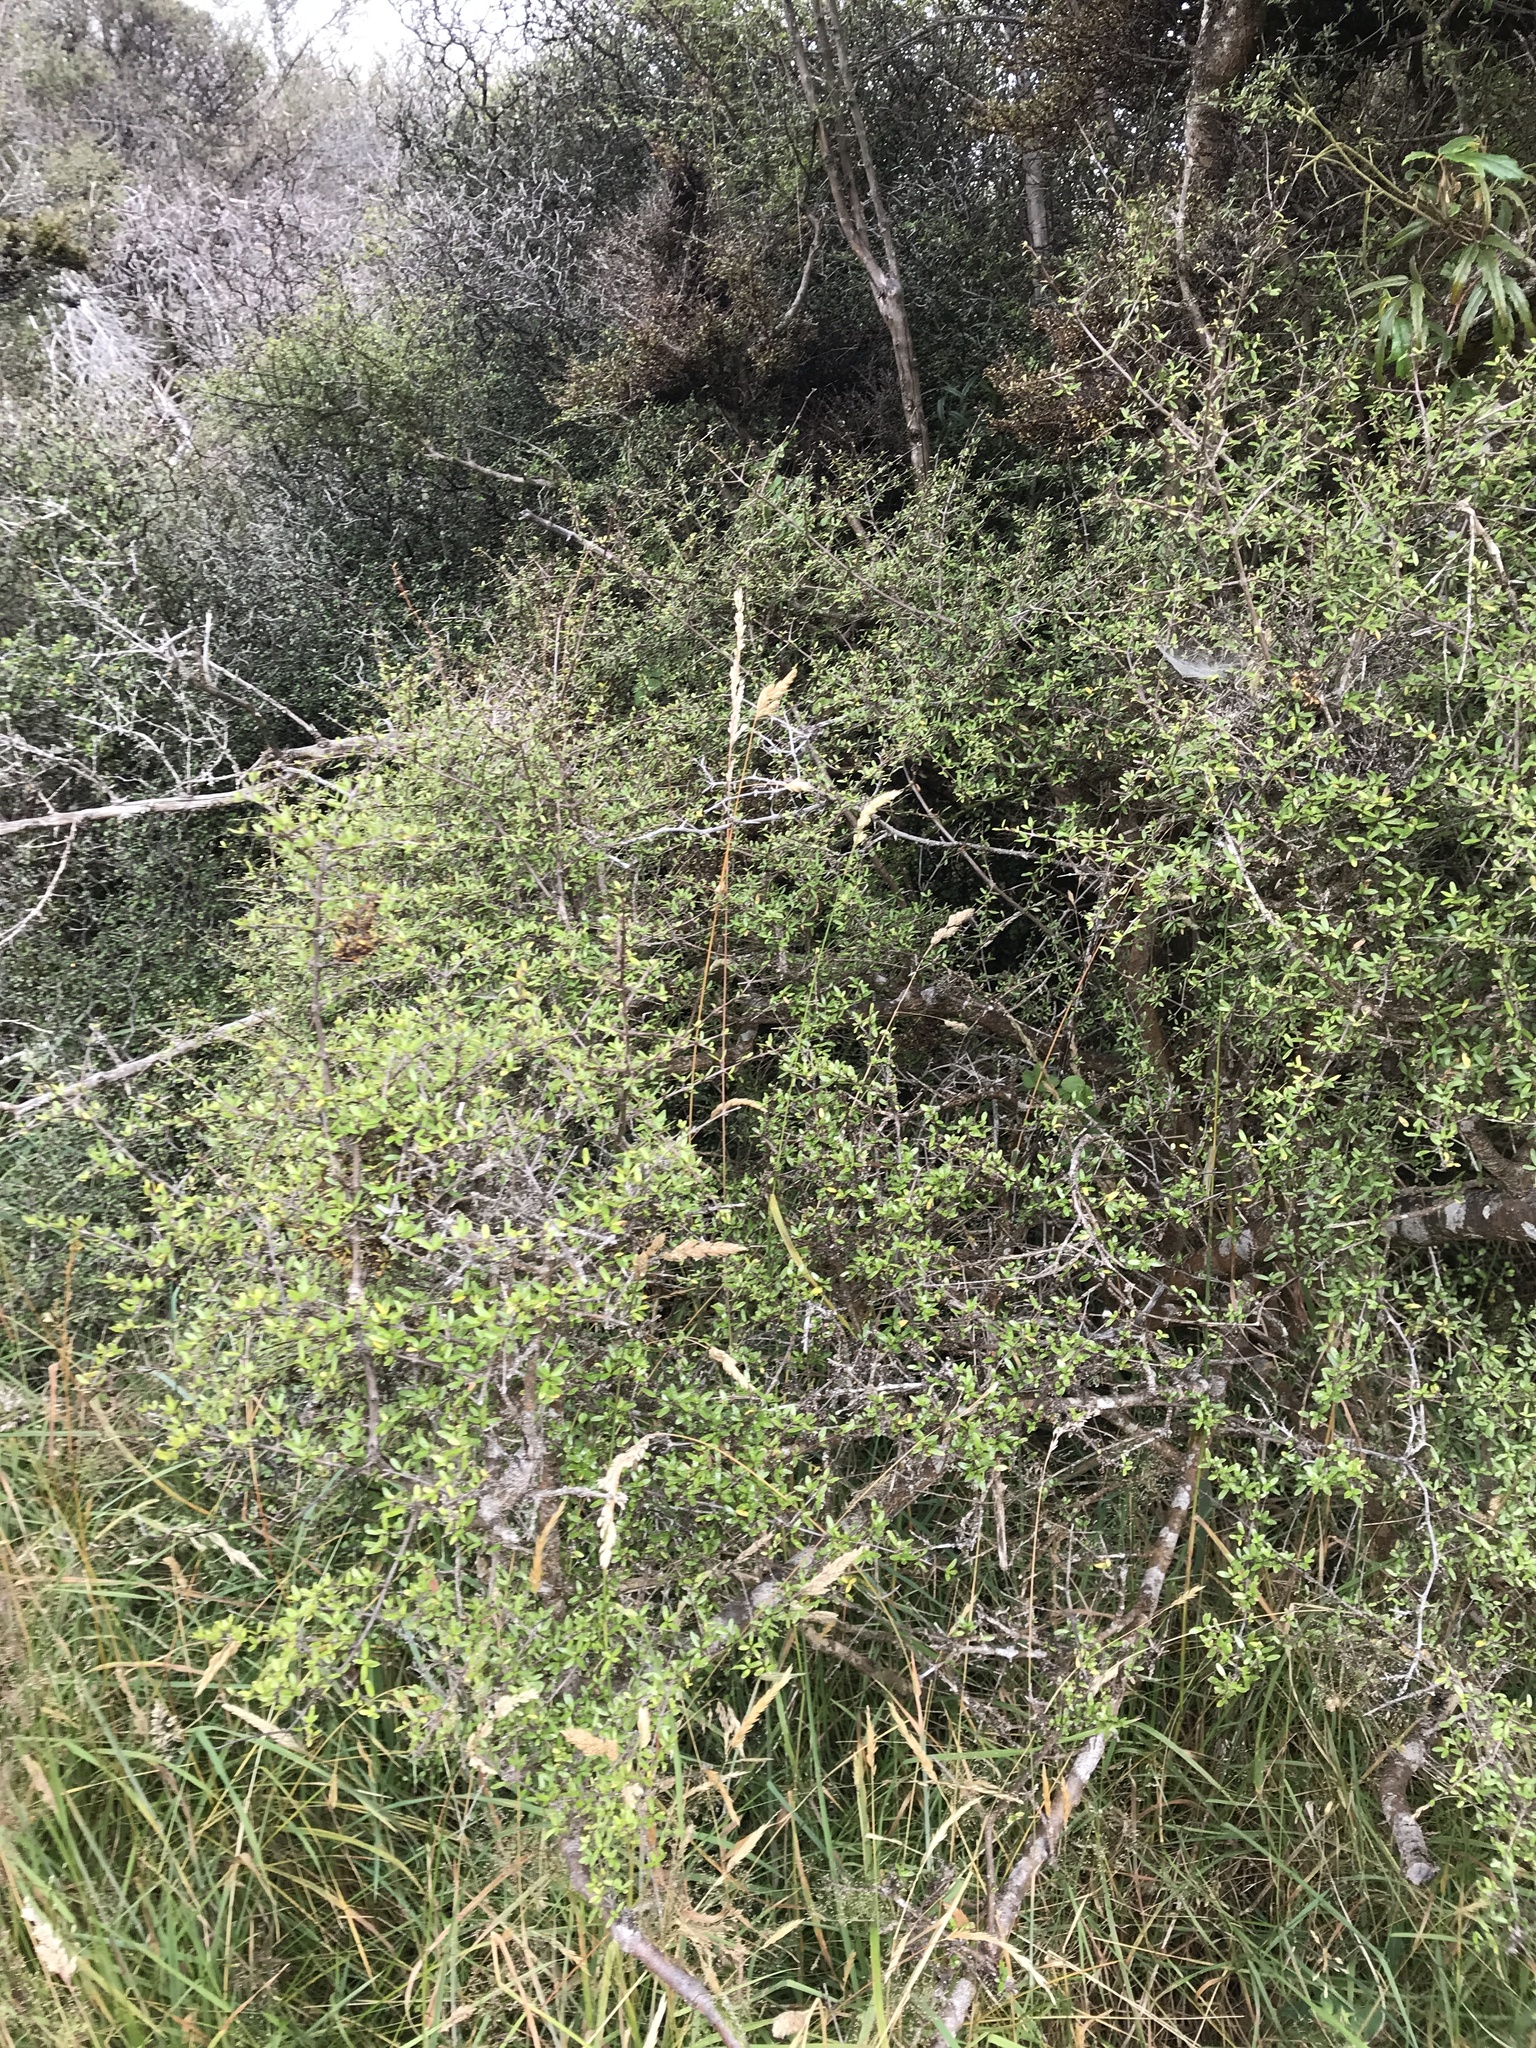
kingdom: Plantae
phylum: Tracheophyta
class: Magnoliopsida
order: Gentianales
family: Rubiaceae
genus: Coprosma
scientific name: Coprosma propinqua
